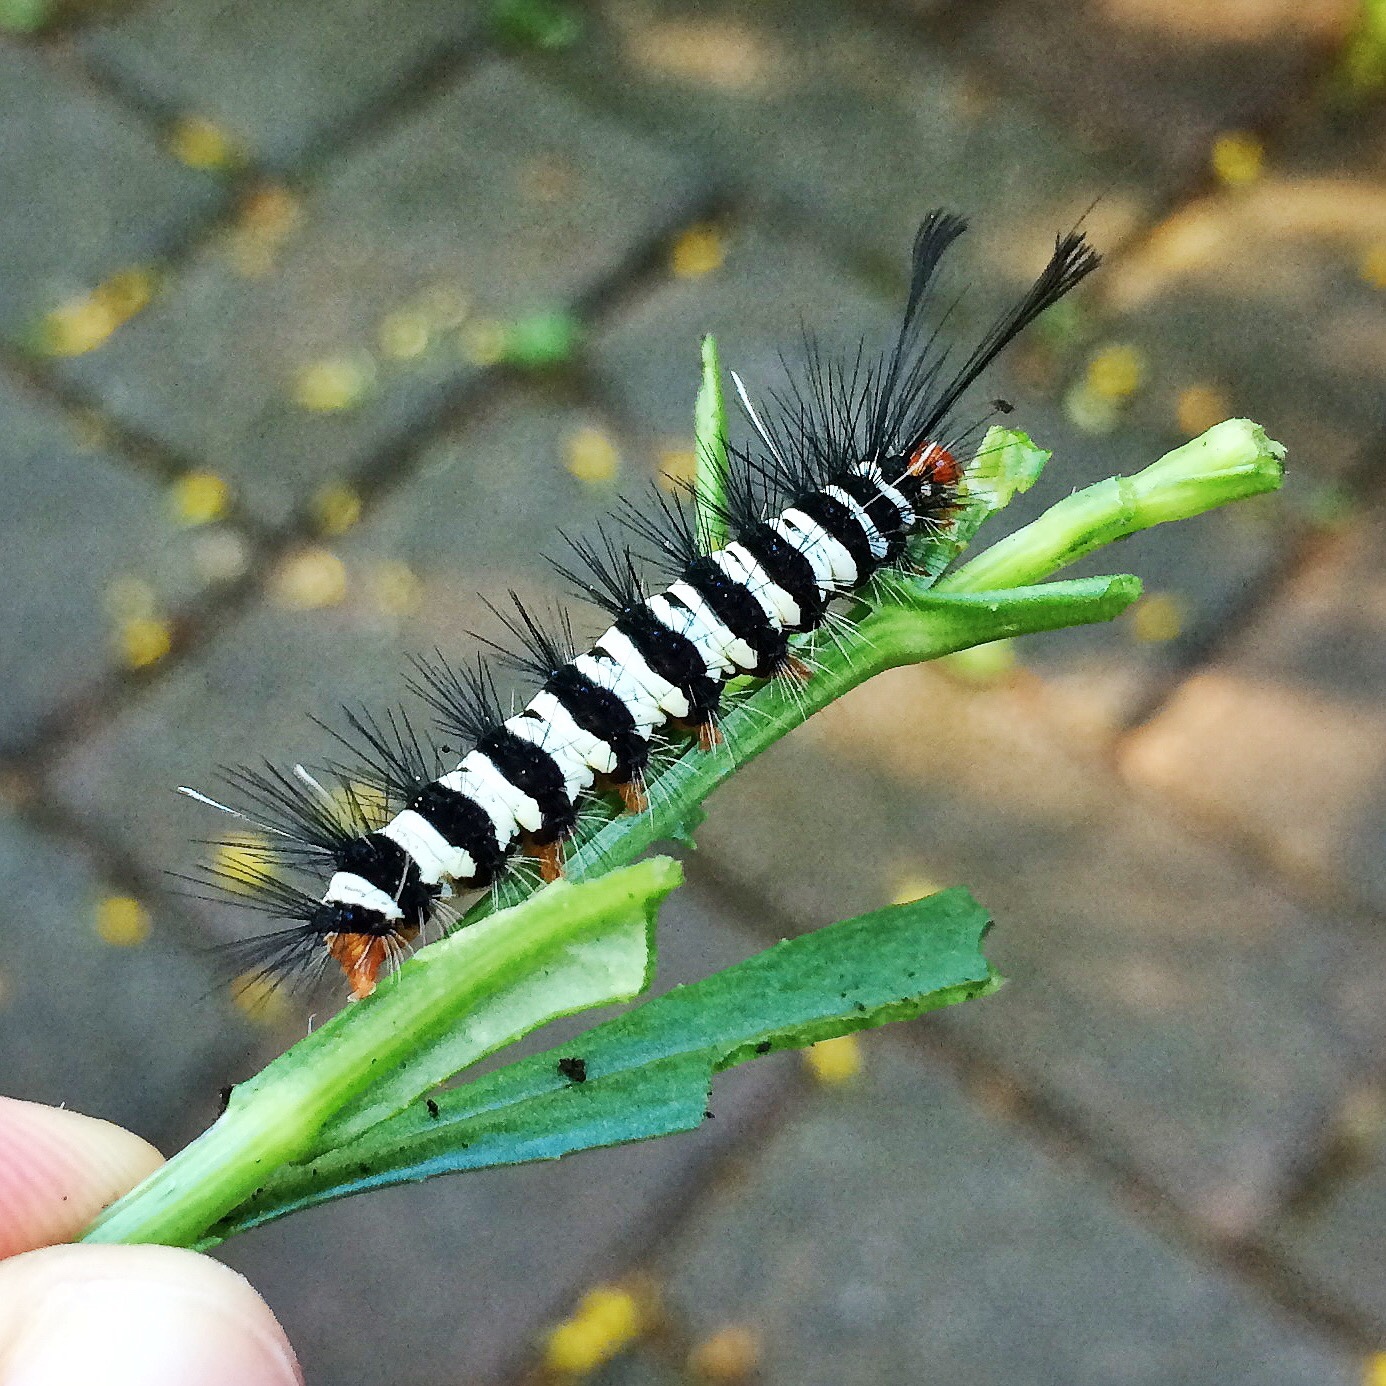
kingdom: Animalia
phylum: Arthropoda
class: Insecta
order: Lepidoptera
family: Erebidae
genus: Nyctemera
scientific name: Nyctemera
